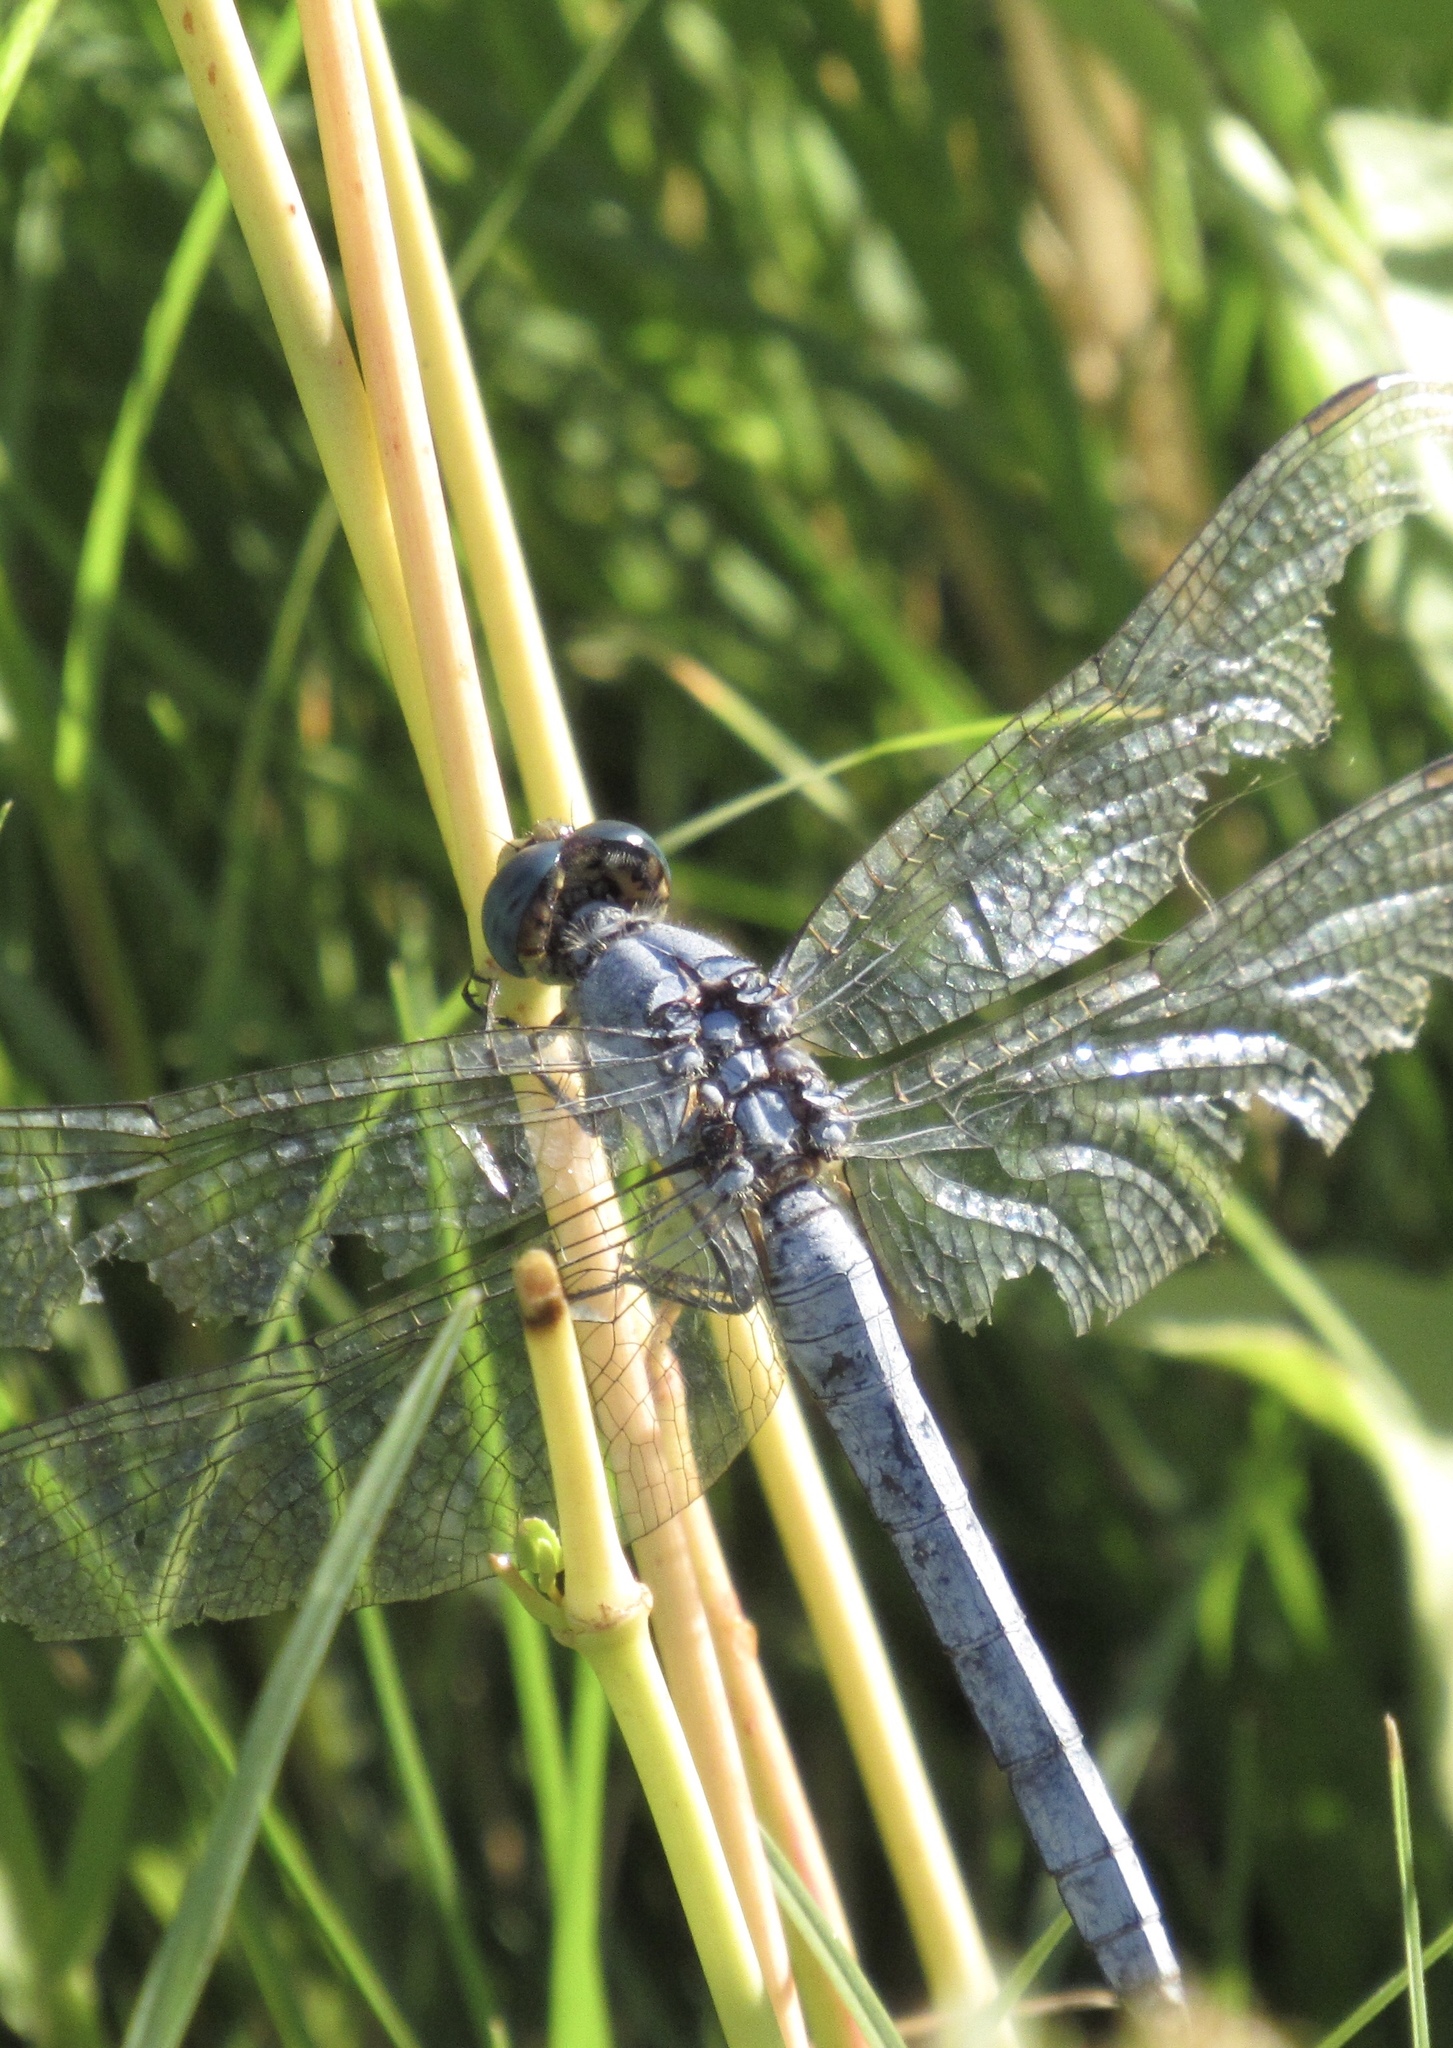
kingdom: Animalia
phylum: Arthropoda
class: Insecta
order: Odonata
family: Libellulidae
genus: Erythemis
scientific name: Erythemis collocata
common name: Western pondhawk
